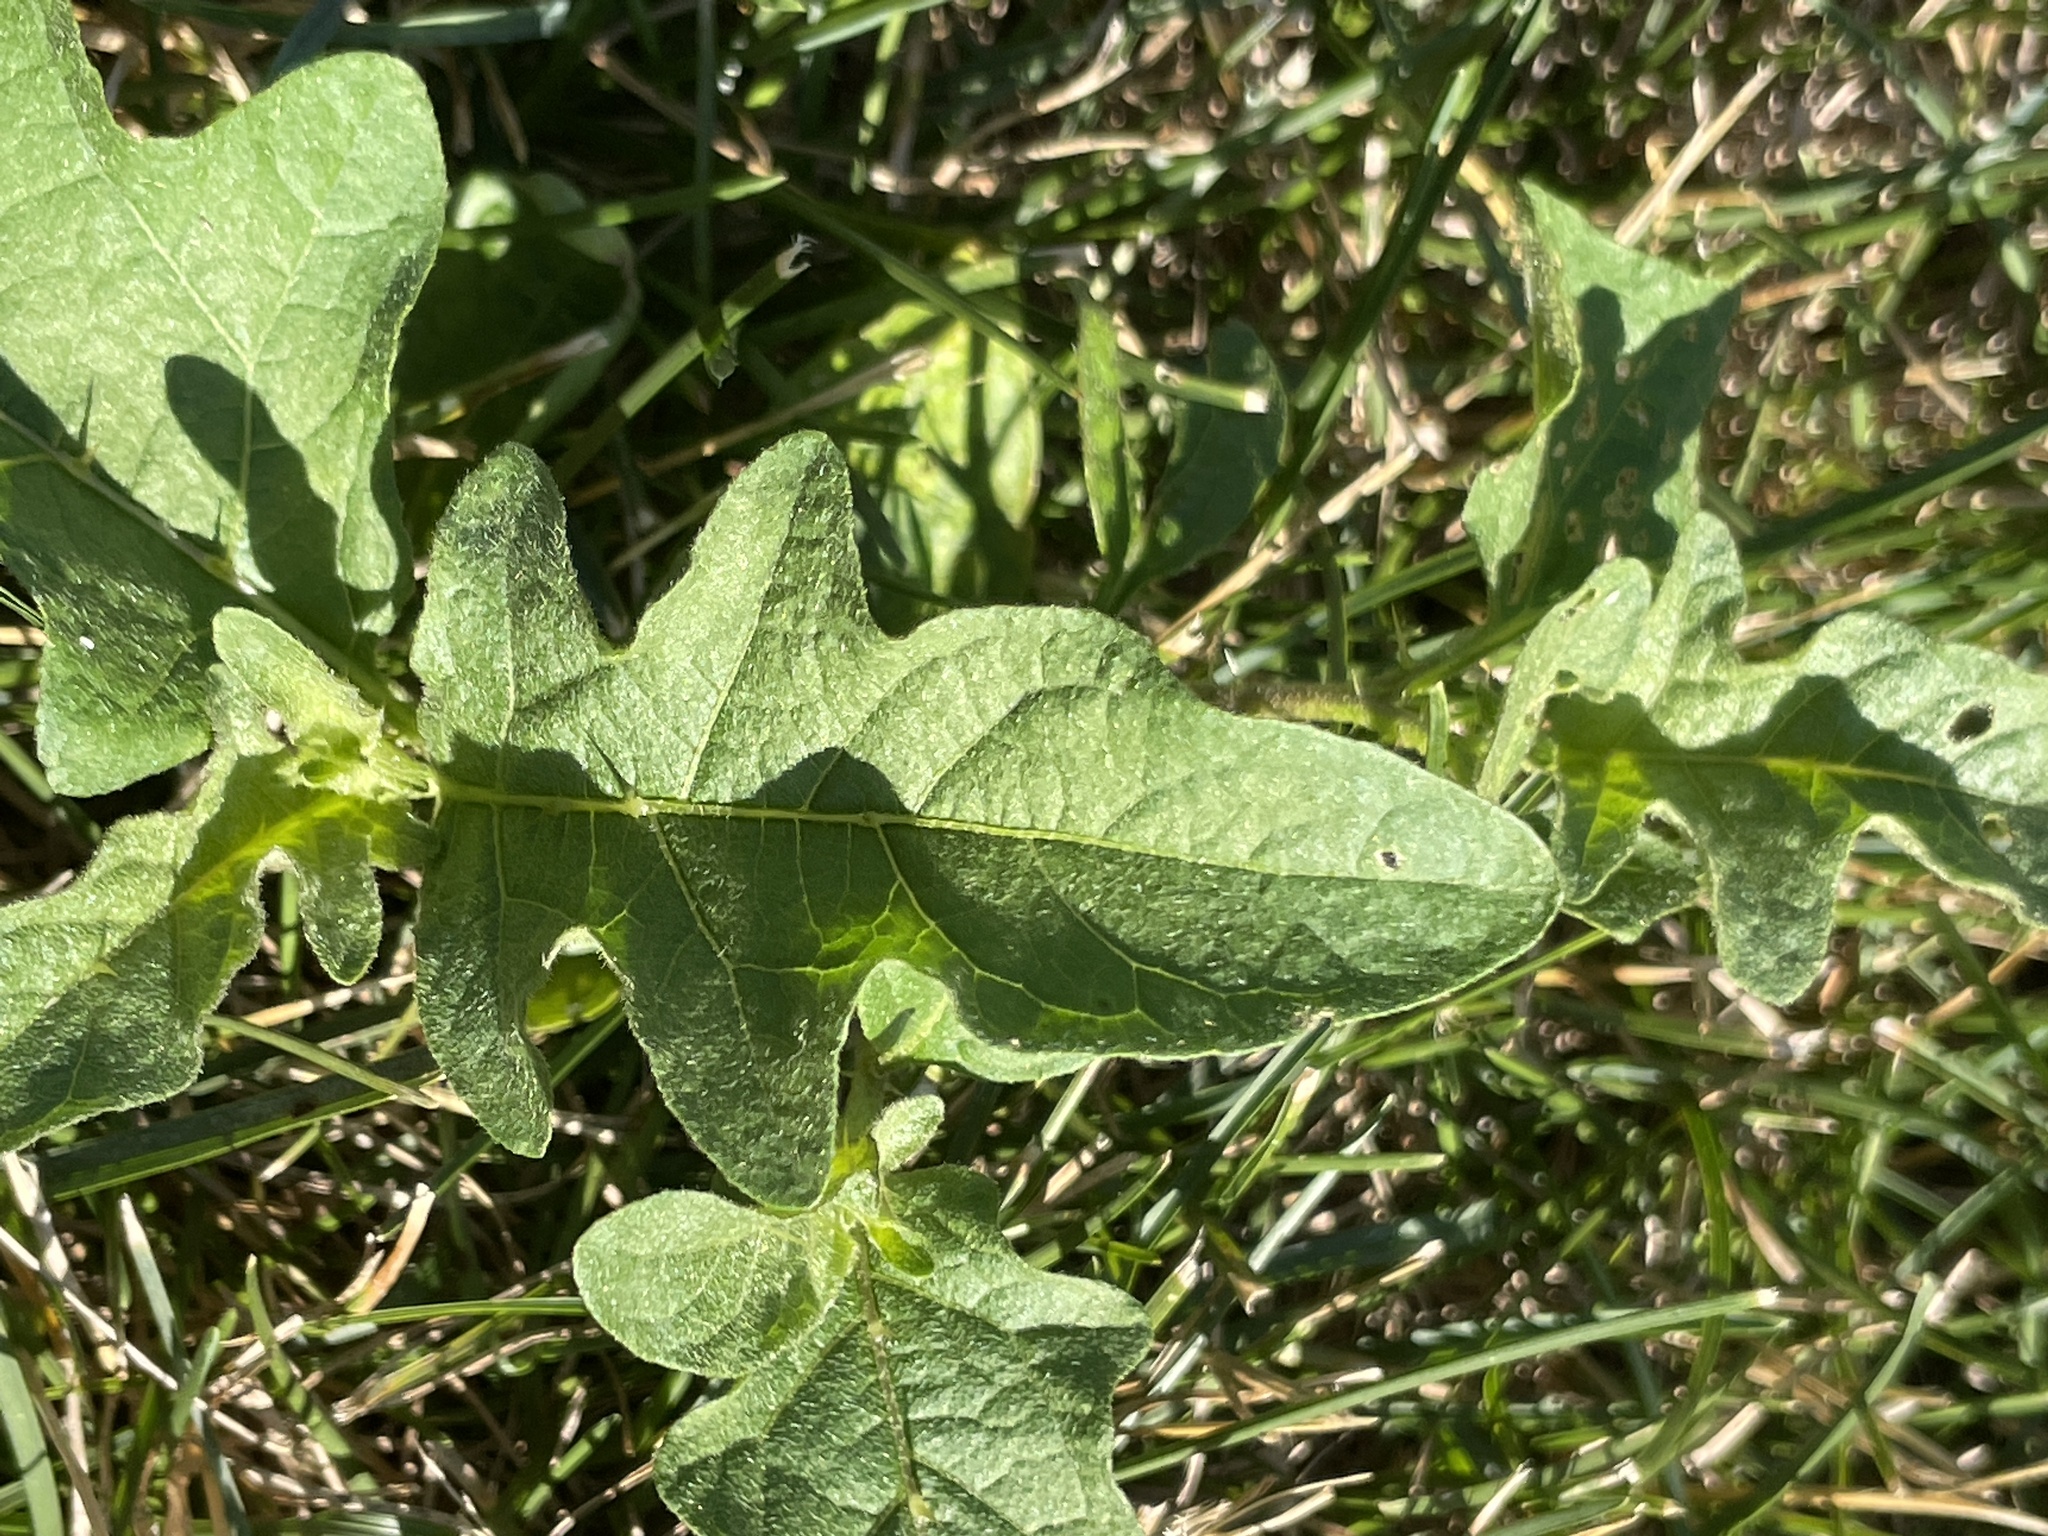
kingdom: Plantae
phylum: Tracheophyta
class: Magnoliopsida
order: Solanales
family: Solanaceae
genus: Solanum
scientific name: Solanum carolinense
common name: Horse-nettle
